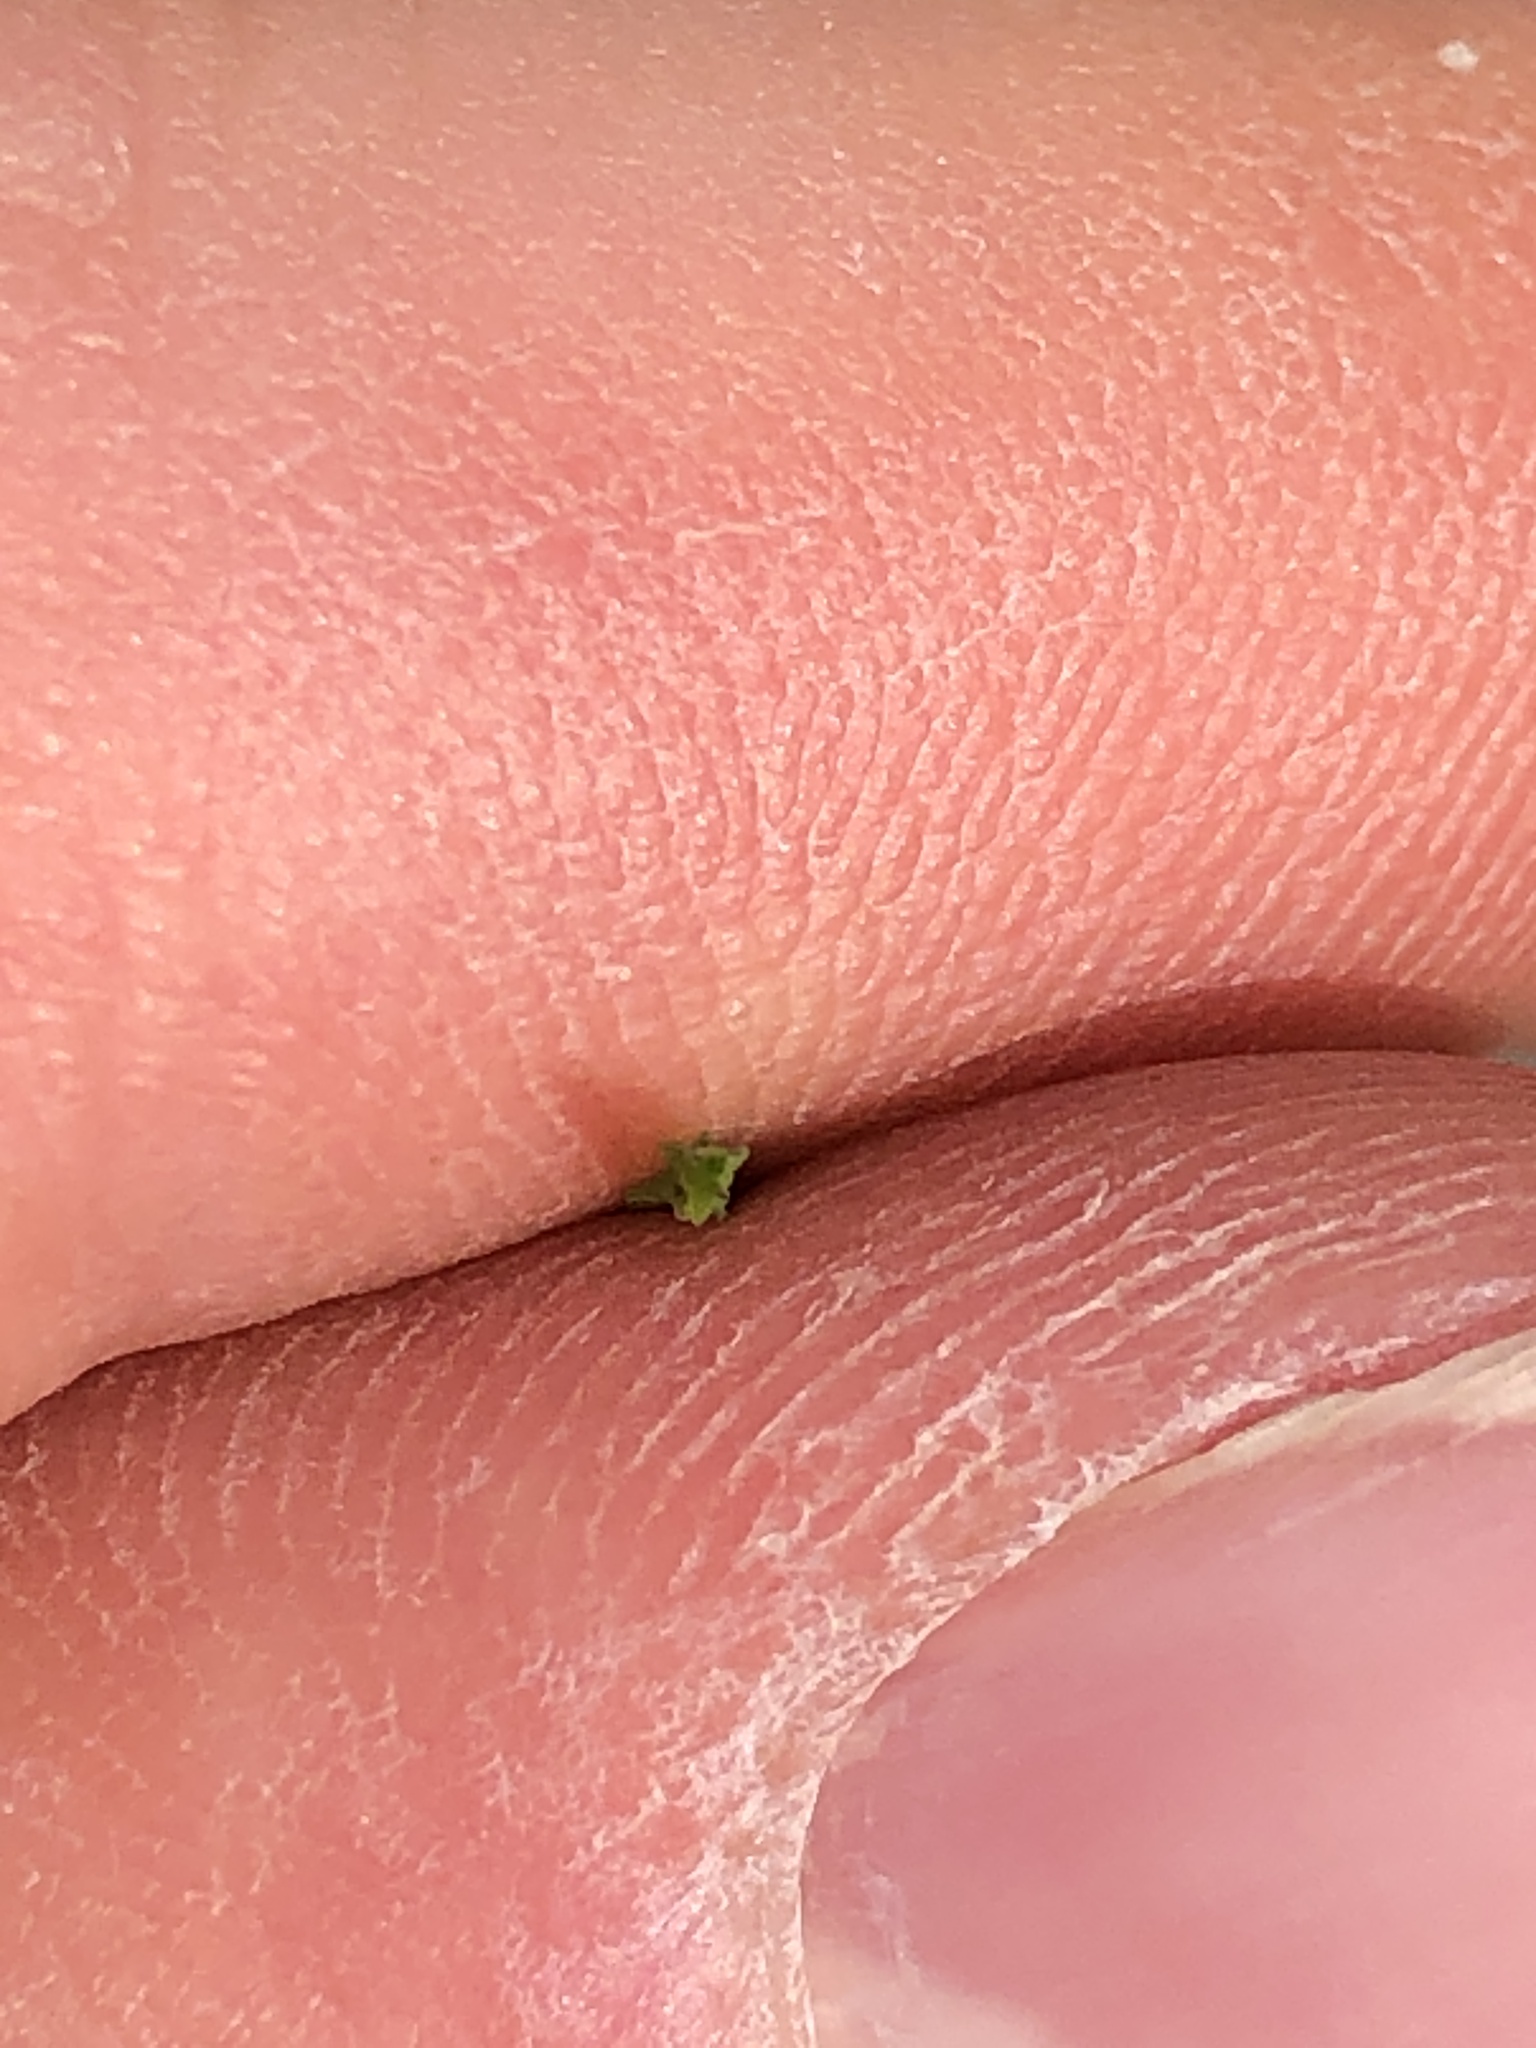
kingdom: Plantae
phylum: Tracheophyta
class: Polypodiopsida
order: Equisetales
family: Equisetaceae
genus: Equisetum
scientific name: Equisetum arvense
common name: Field horsetail
